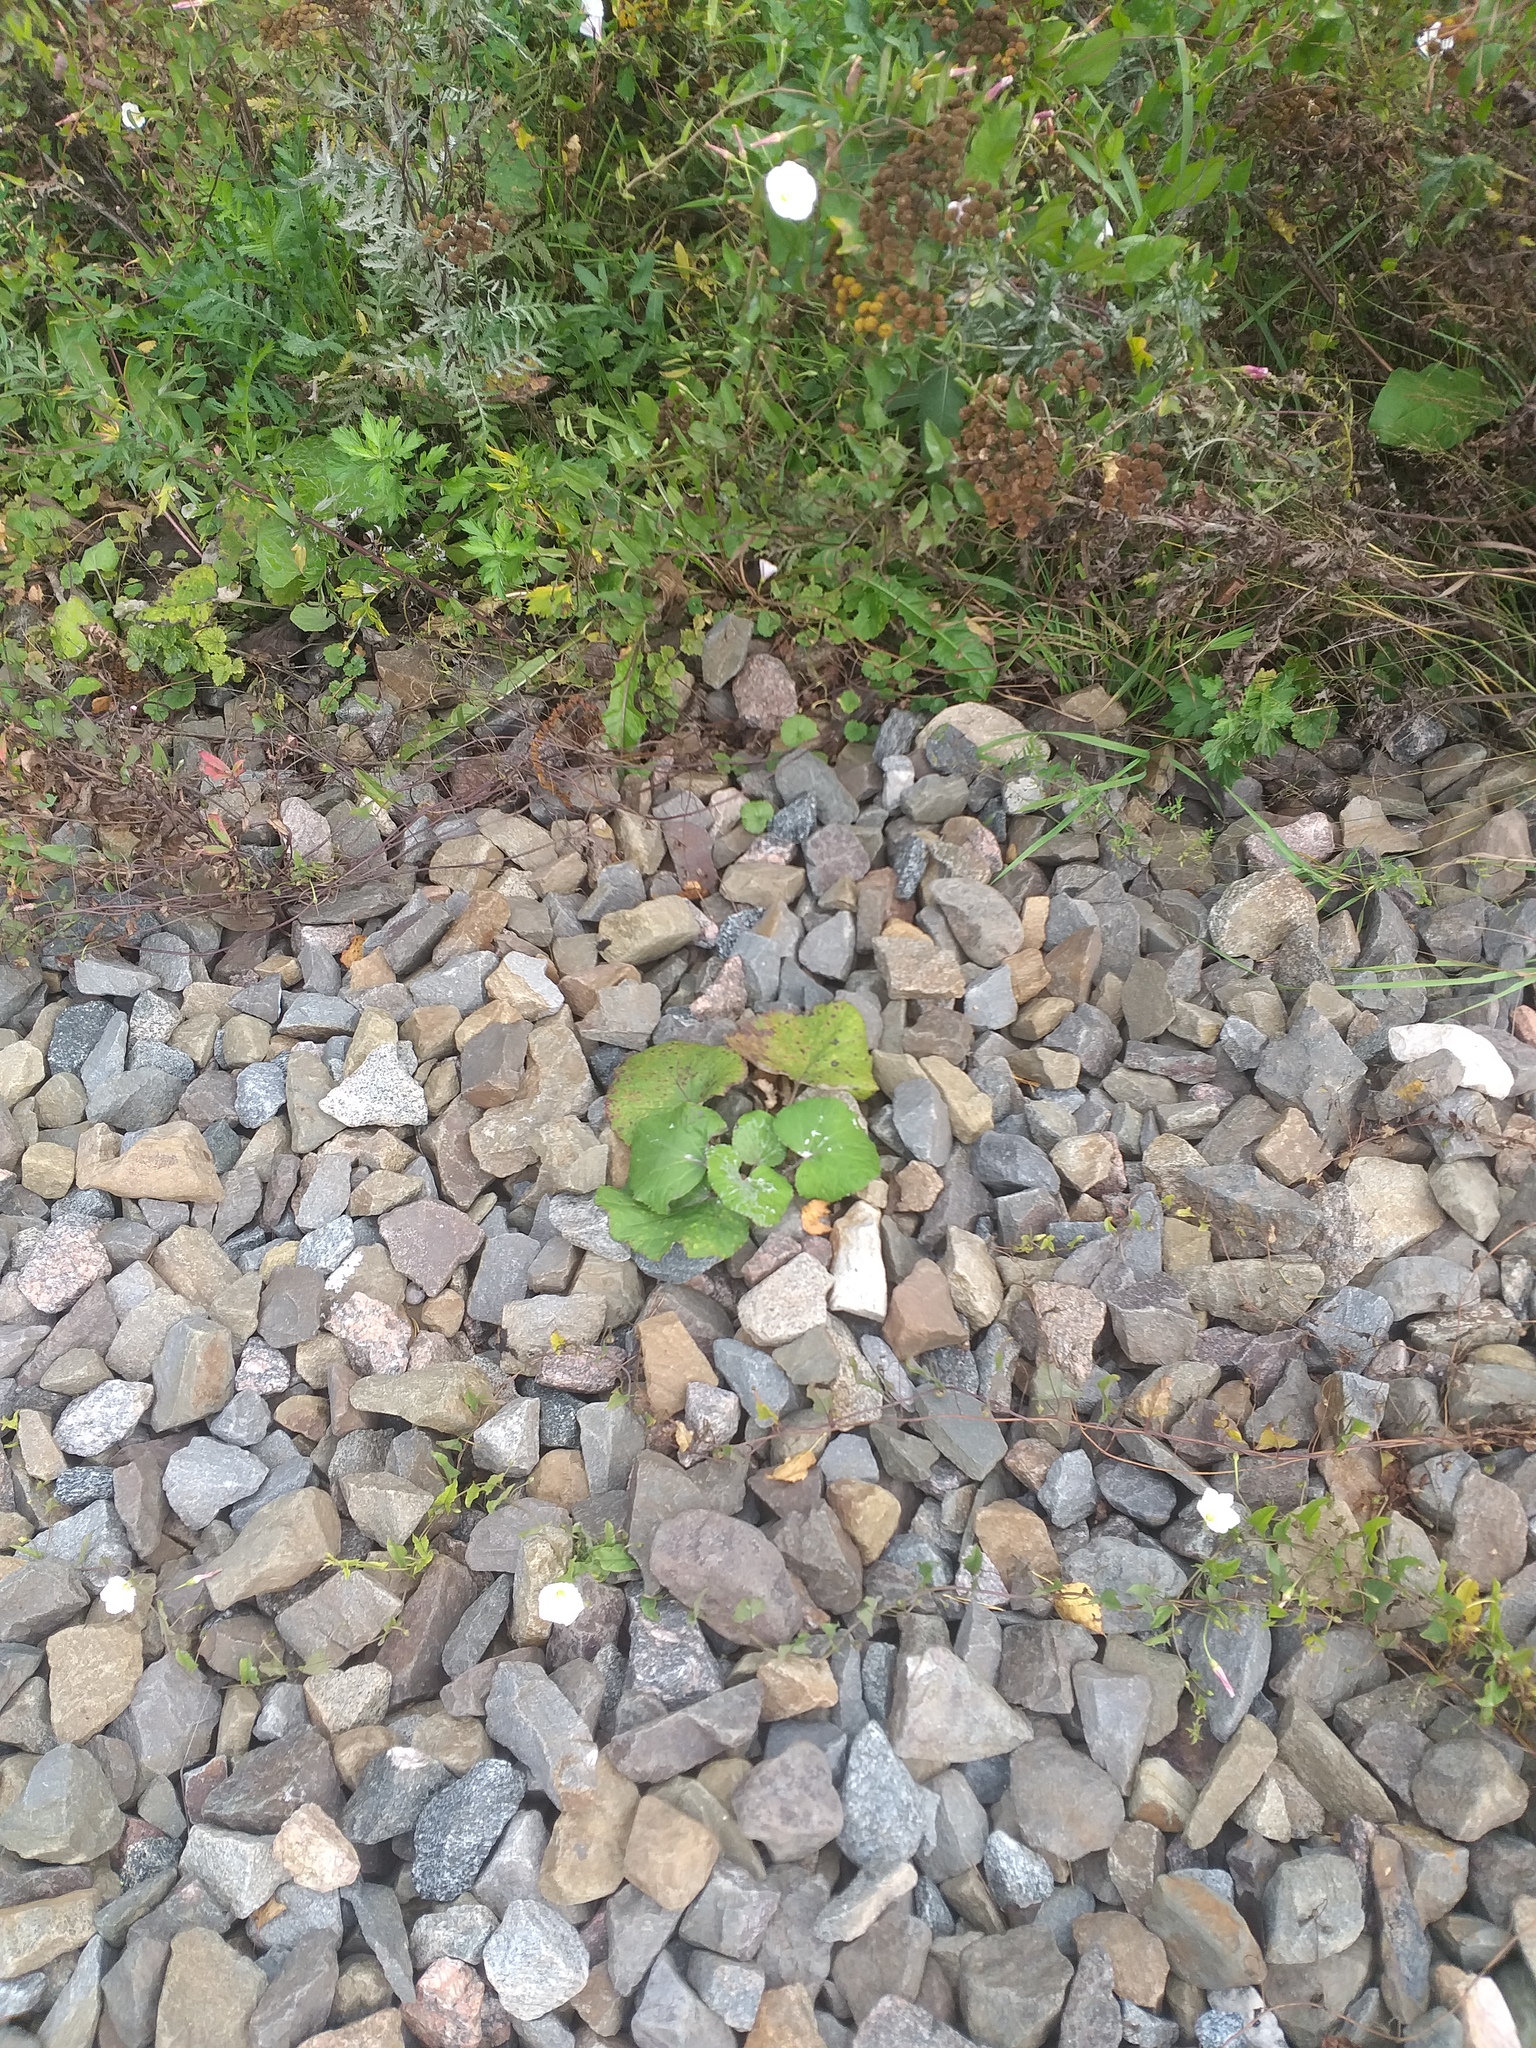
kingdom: Plantae
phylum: Tracheophyta
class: Magnoliopsida
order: Asterales
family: Asteraceae
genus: Tussilago
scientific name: Tussilago farfara
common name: Coltsfoot
